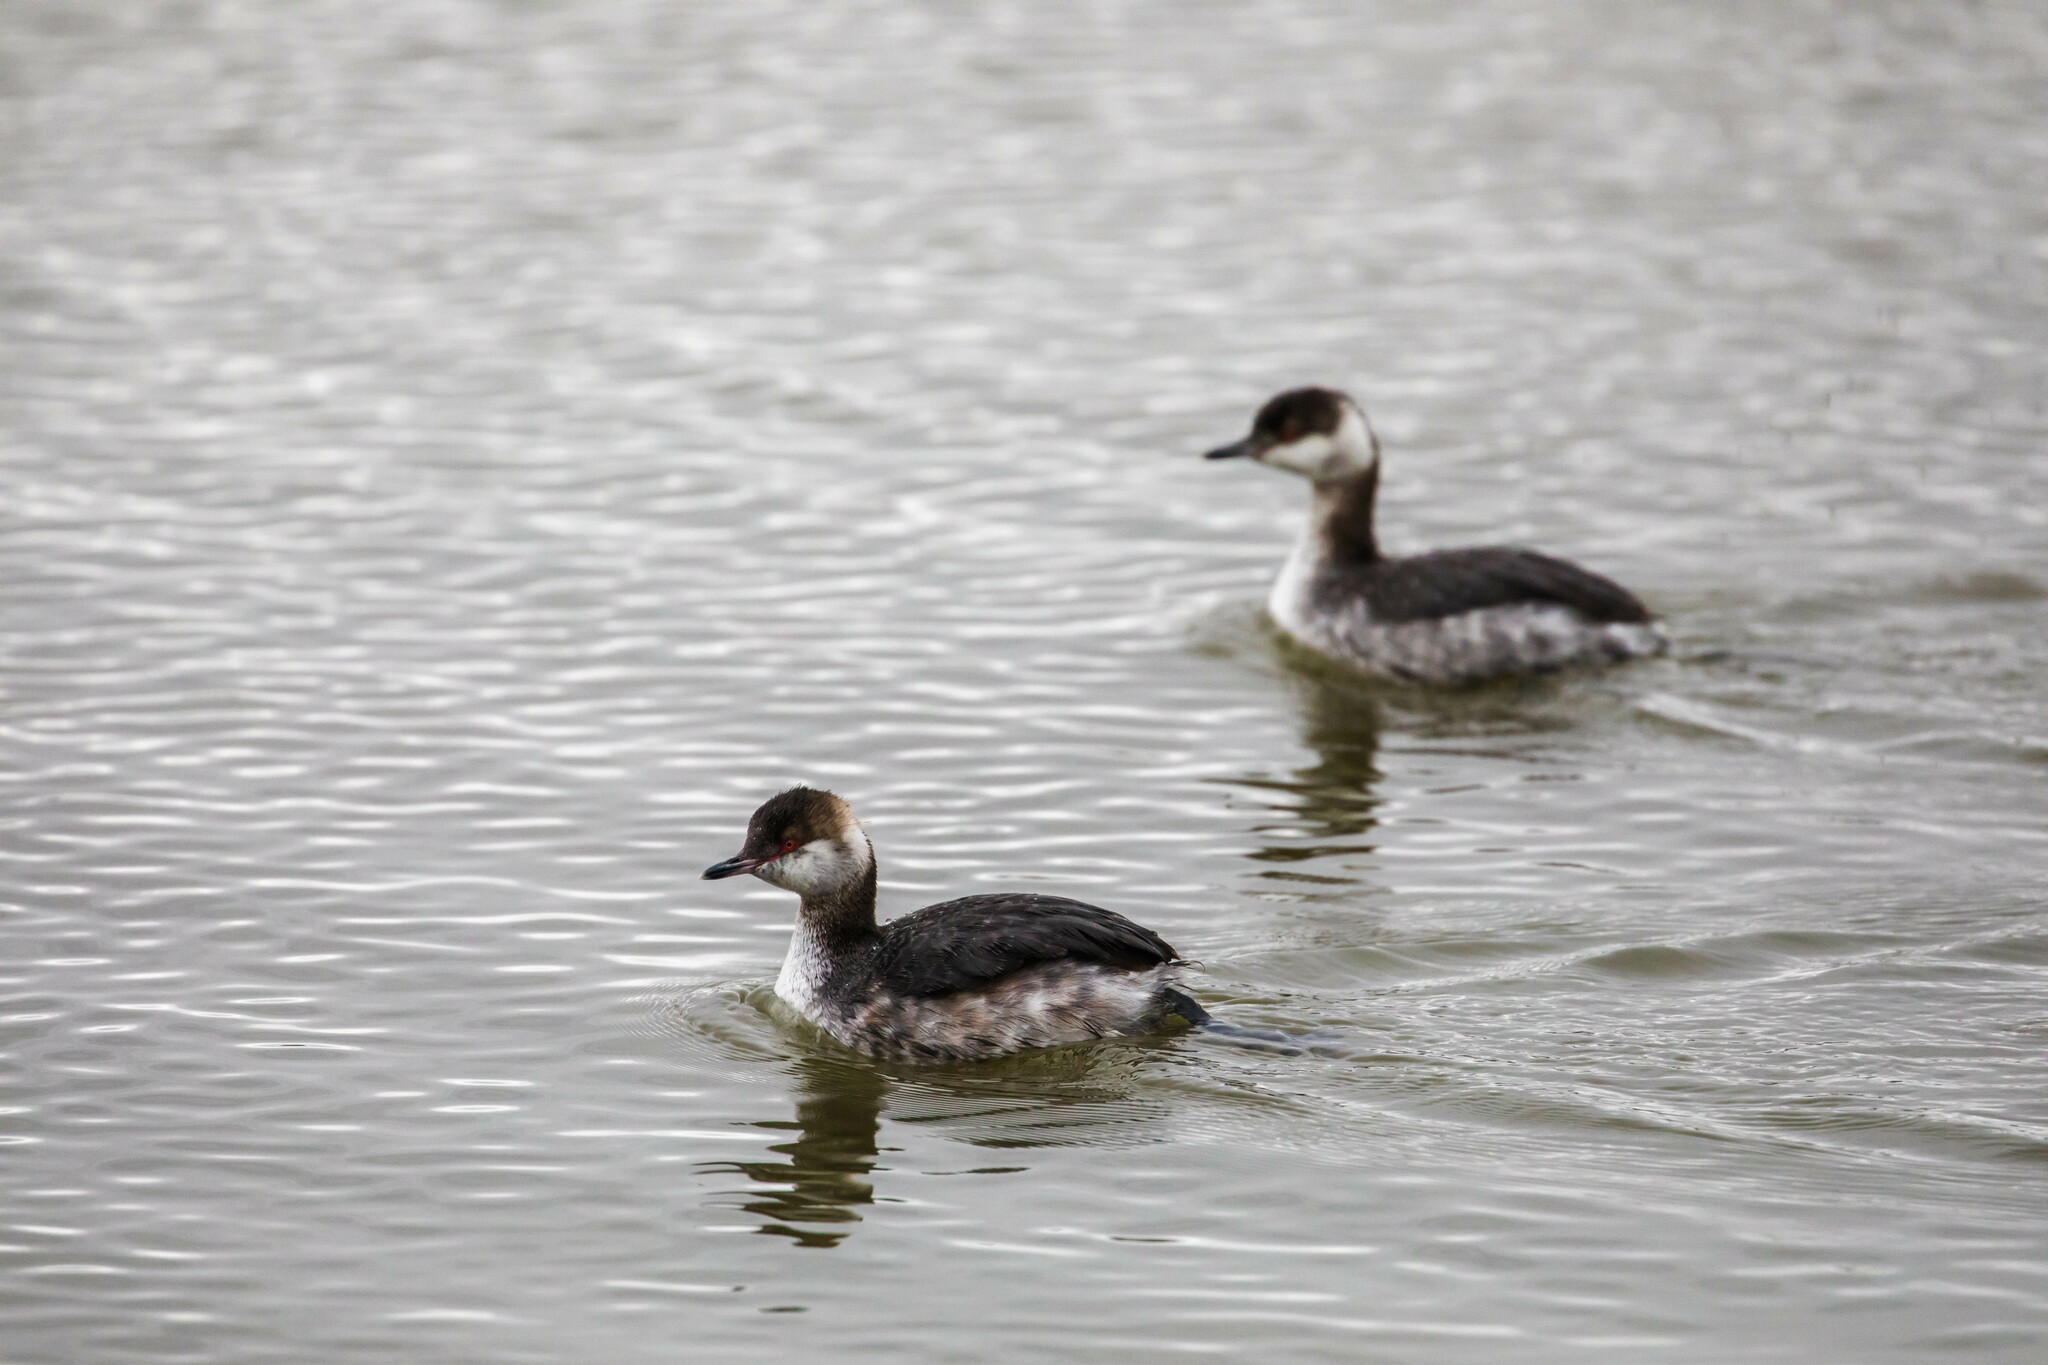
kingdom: Animalia
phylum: Chordata
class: Aves
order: Podicipediformes
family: Podicipedidae
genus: Podiceps
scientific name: Podiceps auritus
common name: Horned grebe
